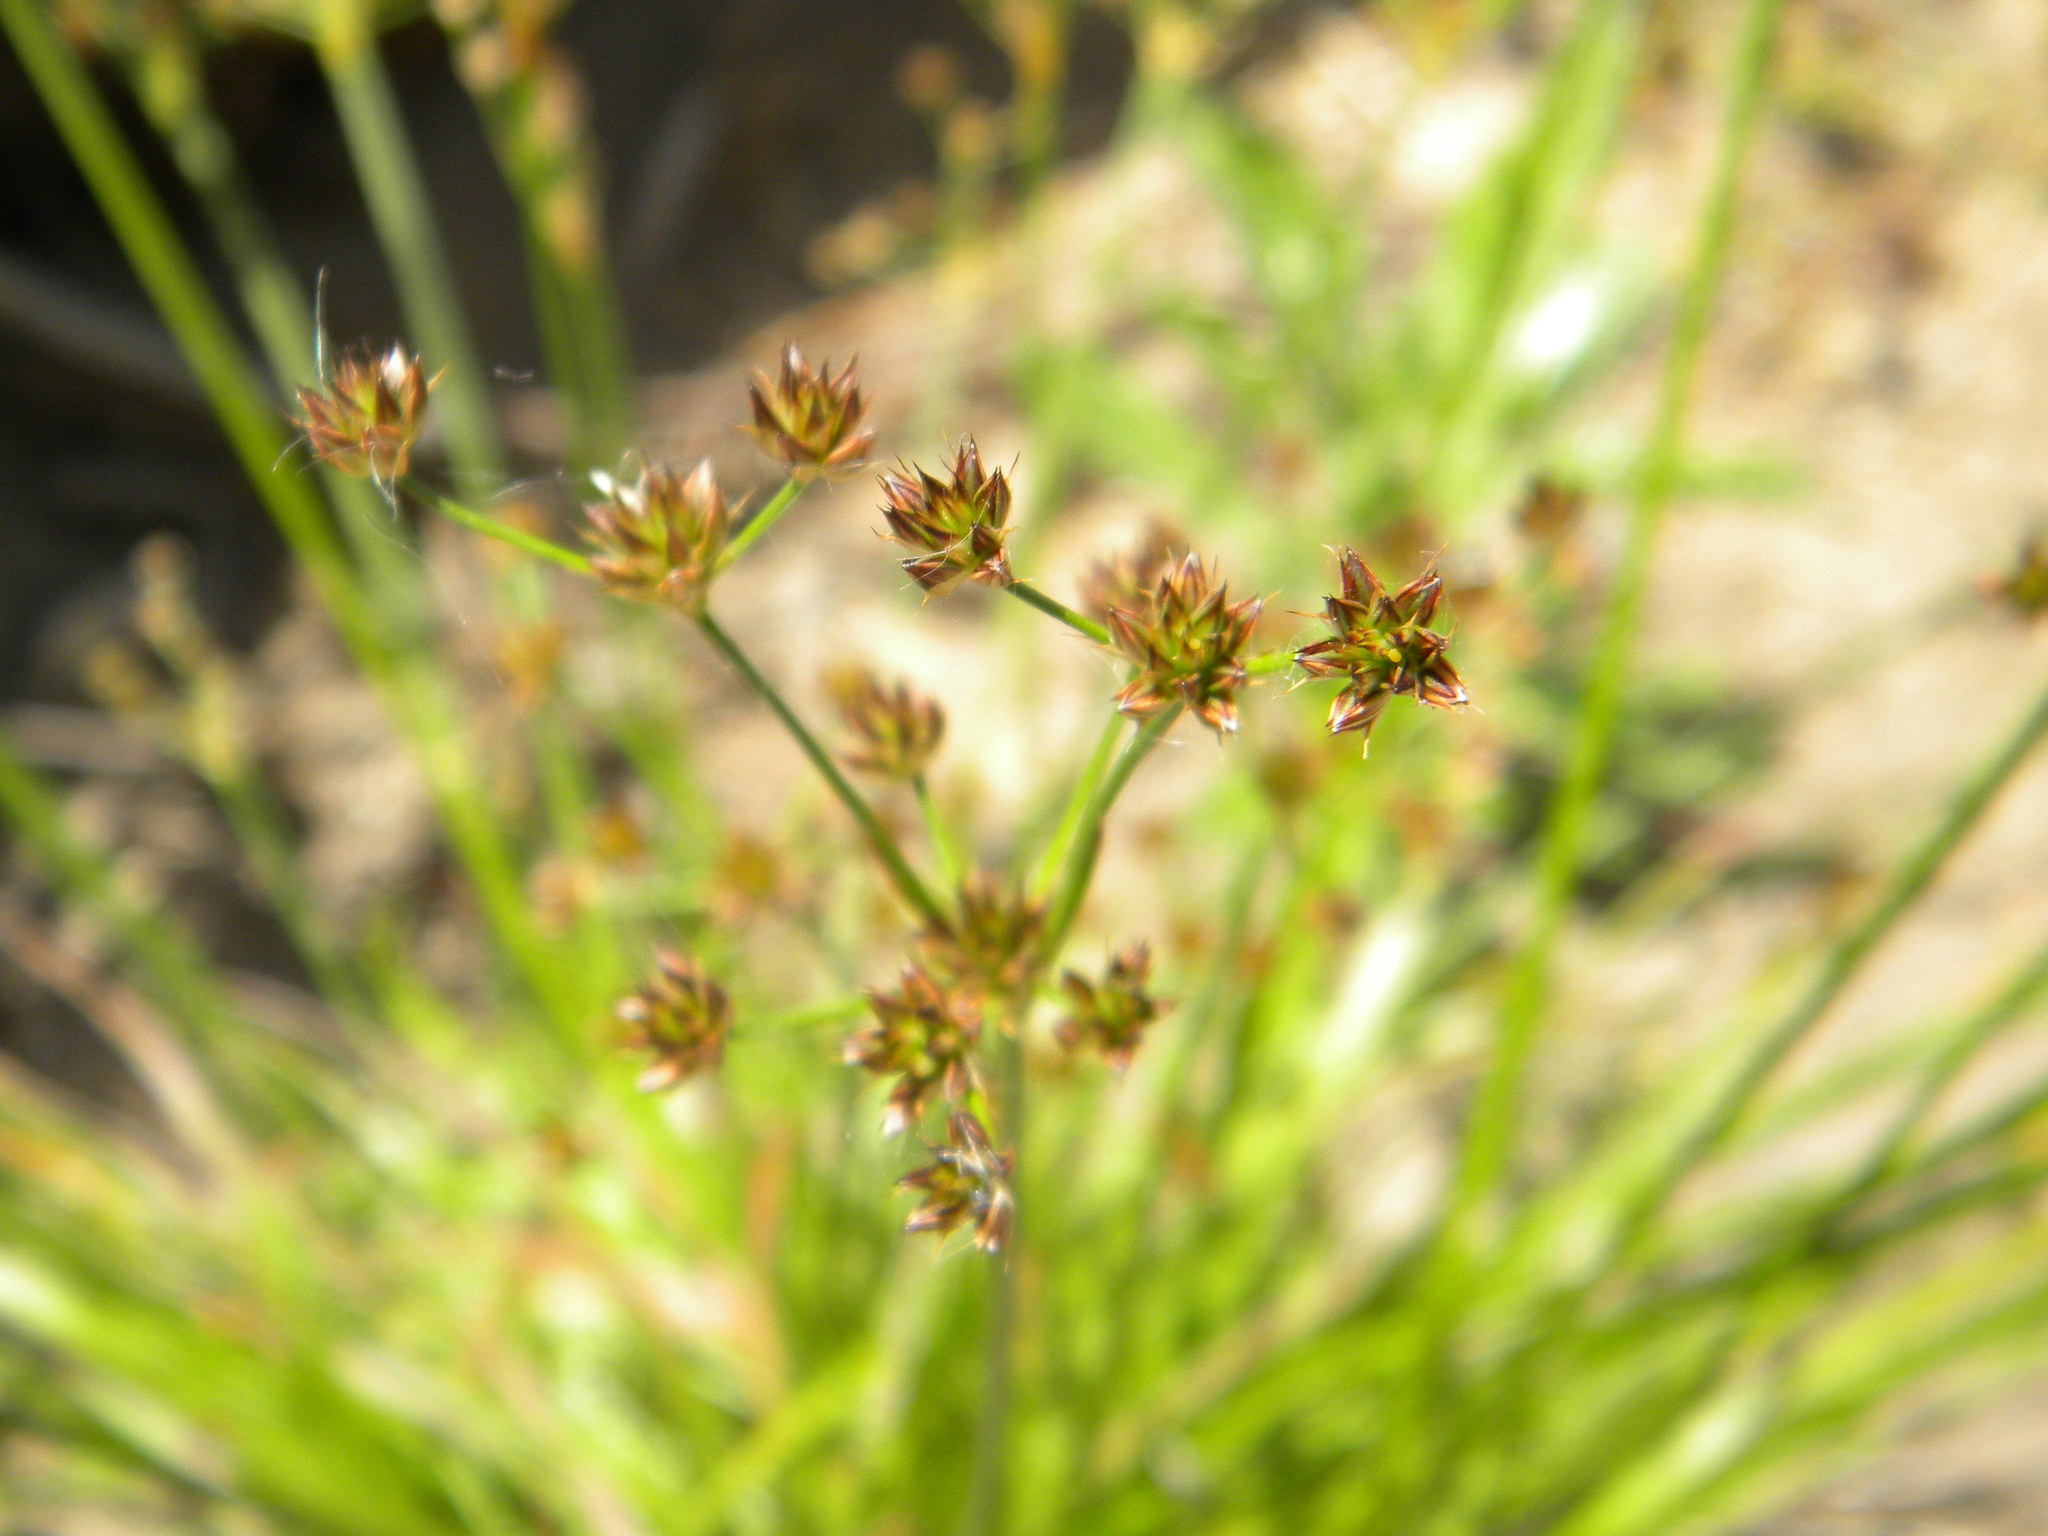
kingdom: Plantae
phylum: Tracheophyta
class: Liliopsida
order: Poales
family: Juncaceae
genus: Juncus
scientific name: Juncus lomatophyllus
